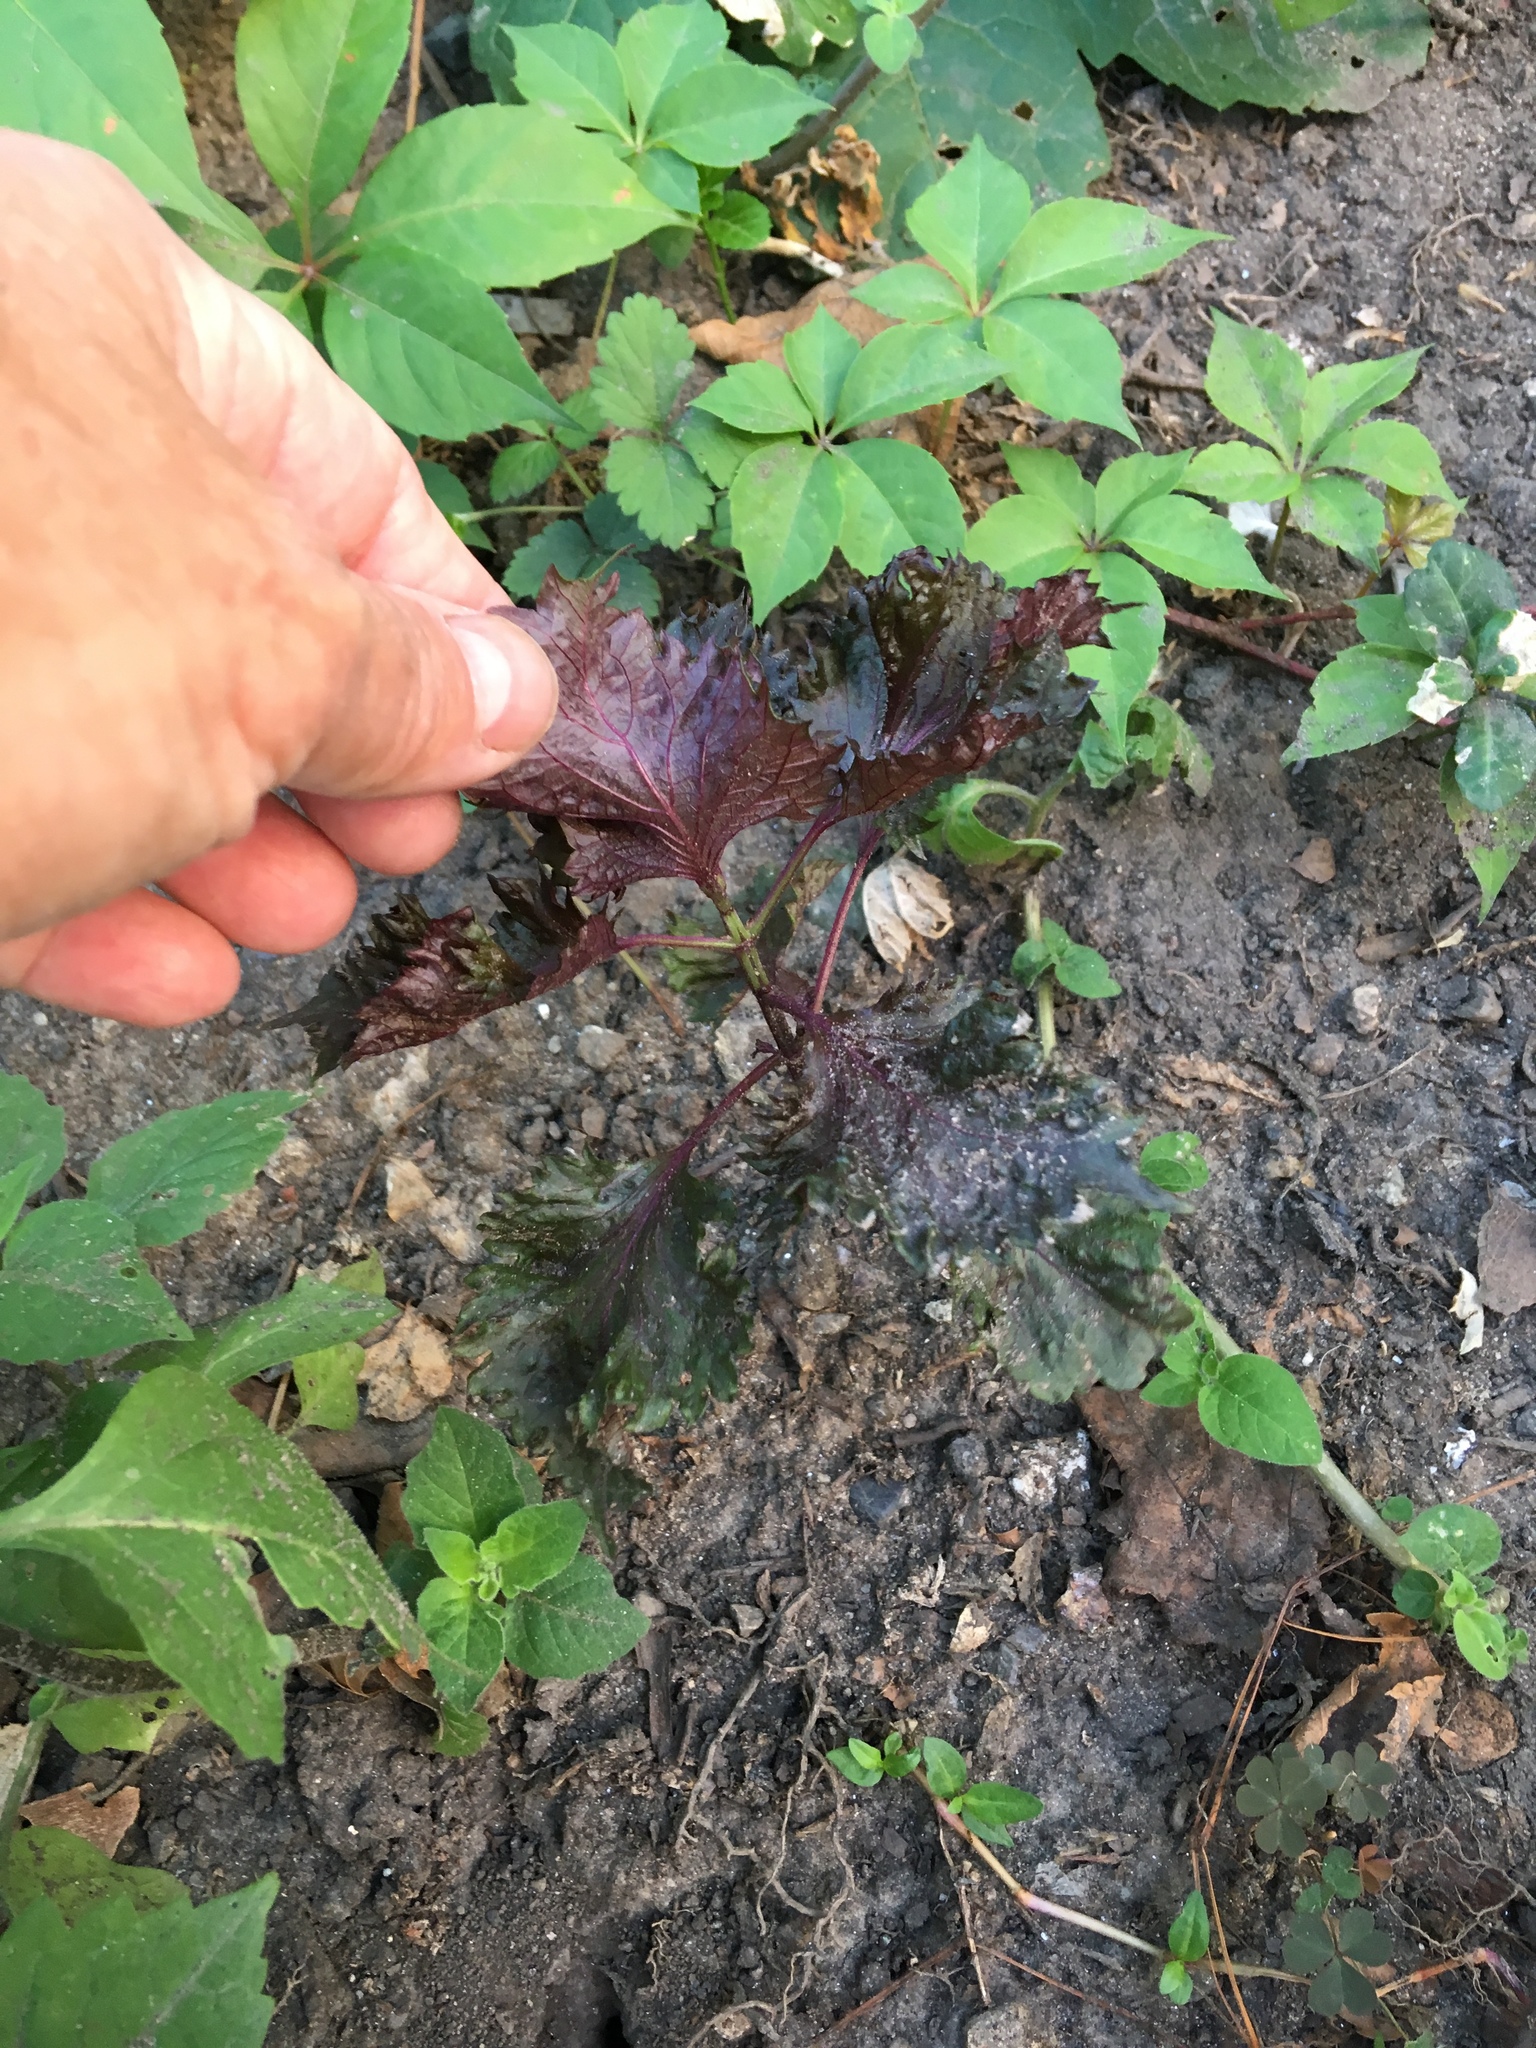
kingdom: Plantae
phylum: Tracheophyta
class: Magnoliopsida
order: Lamiales
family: Lamiaceae
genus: Perilla
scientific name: Perilla frutescens
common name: Perilla
